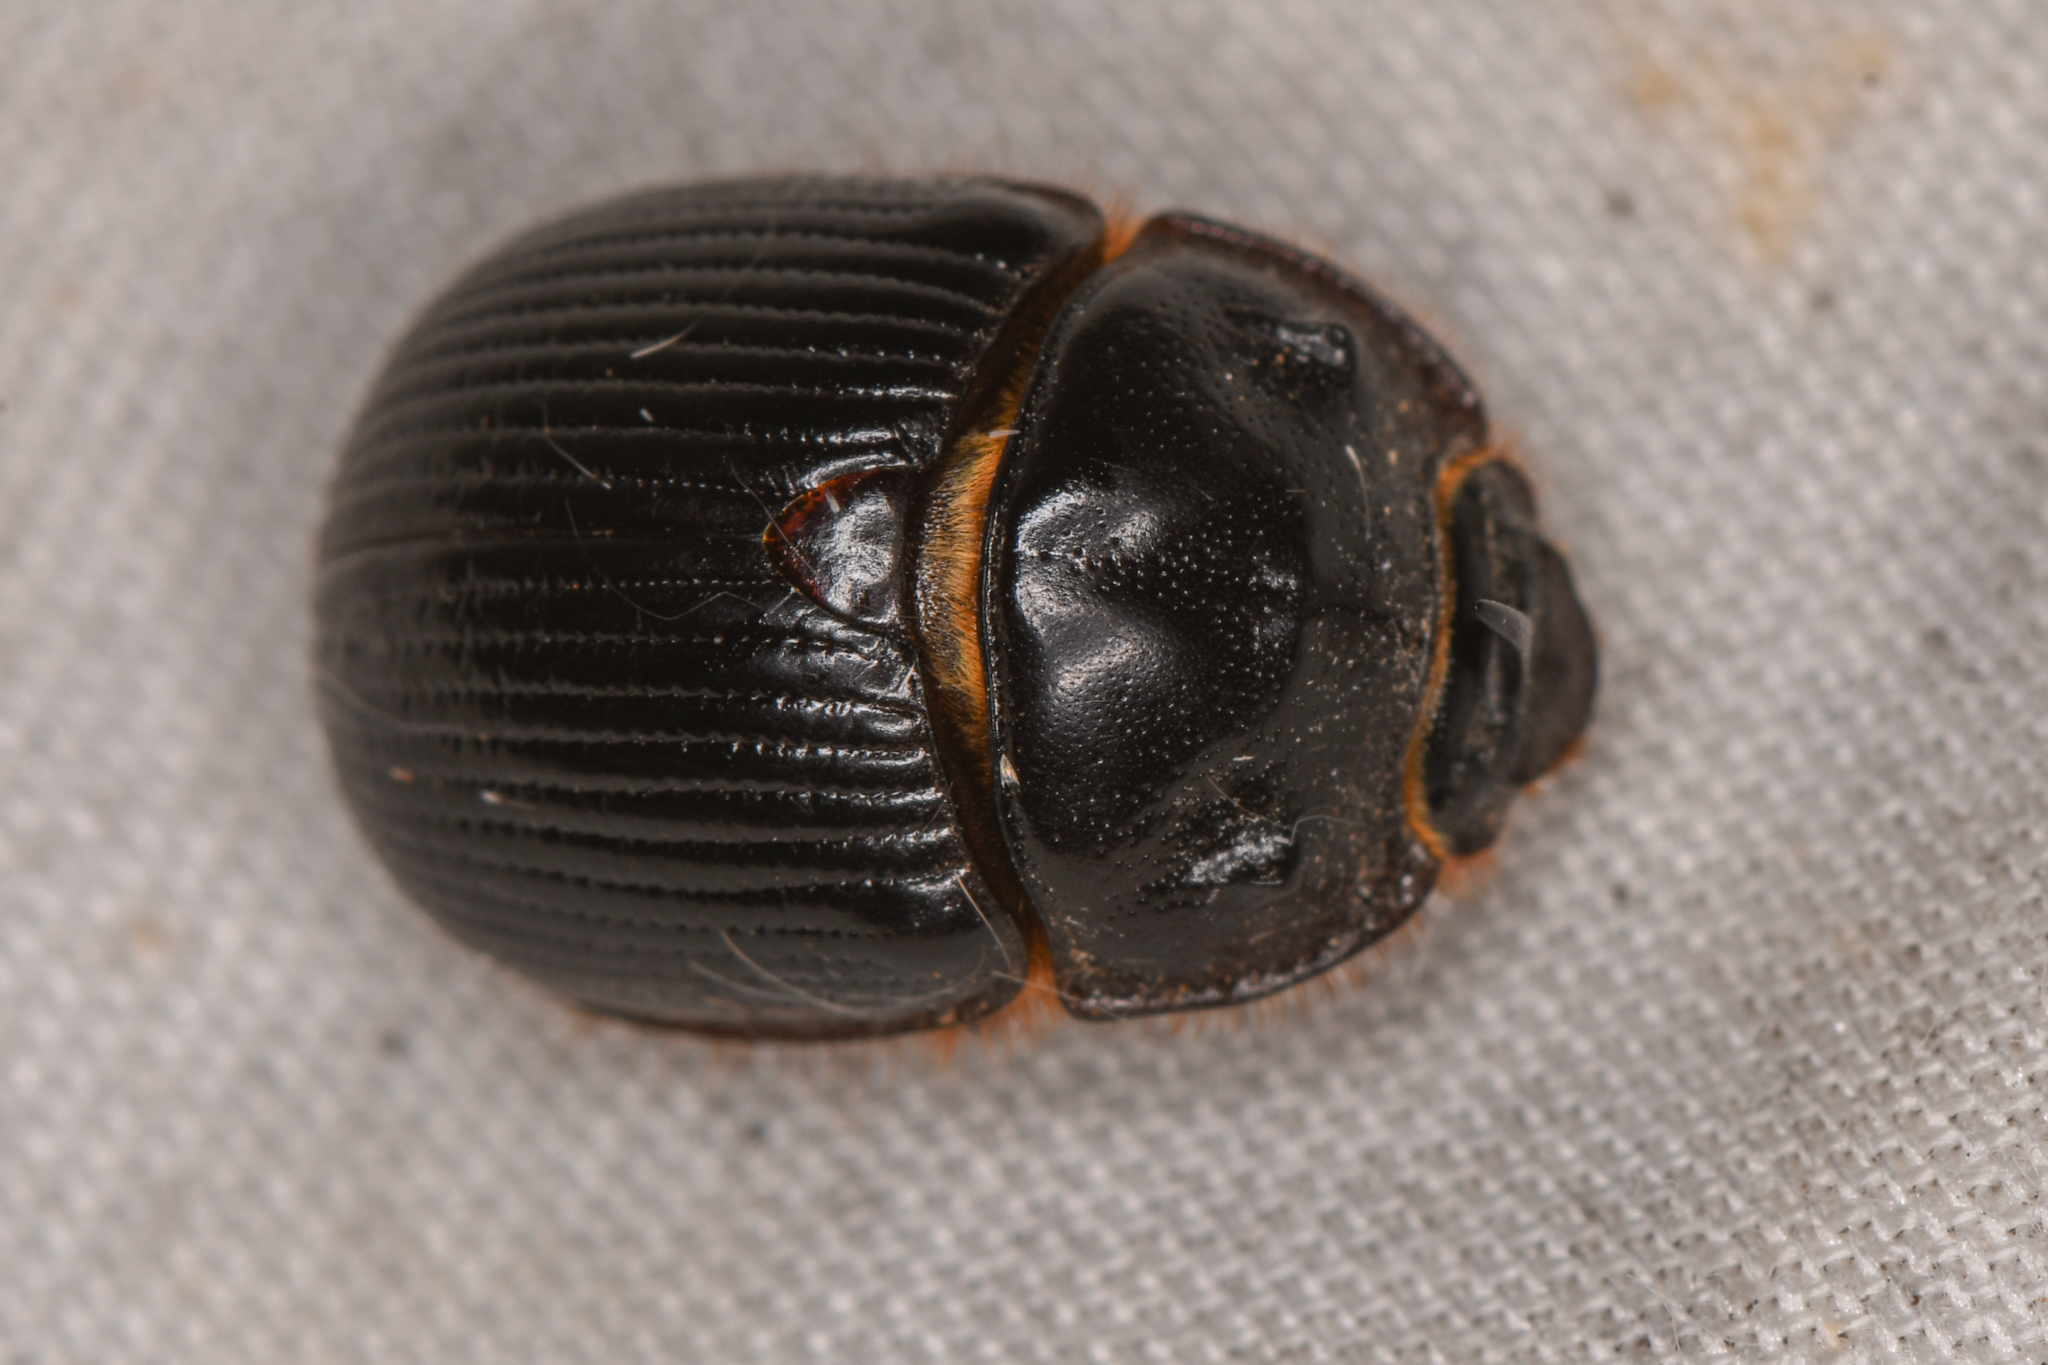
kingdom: Animalia
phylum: Arthropoda
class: Insecta
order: Coleoptera
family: Geotrupidae
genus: Odonteus
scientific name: Odonteus obesus
